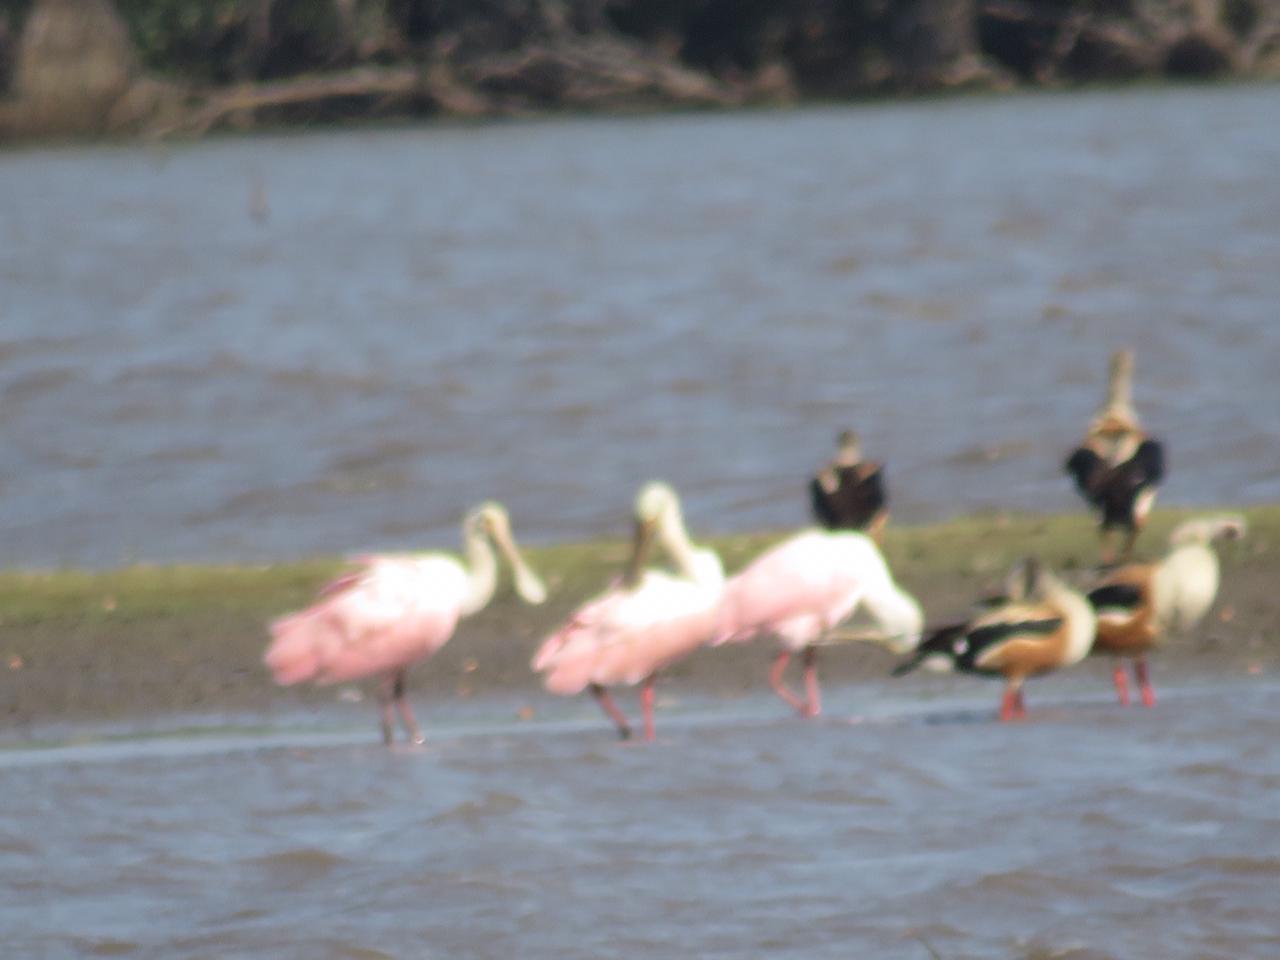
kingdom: Animalia
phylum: Chordata
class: Aves
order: Pelecaniformes
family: Threskiornithidae
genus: Platalea
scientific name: Platalea ajaja
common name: Roseate spoonbill
